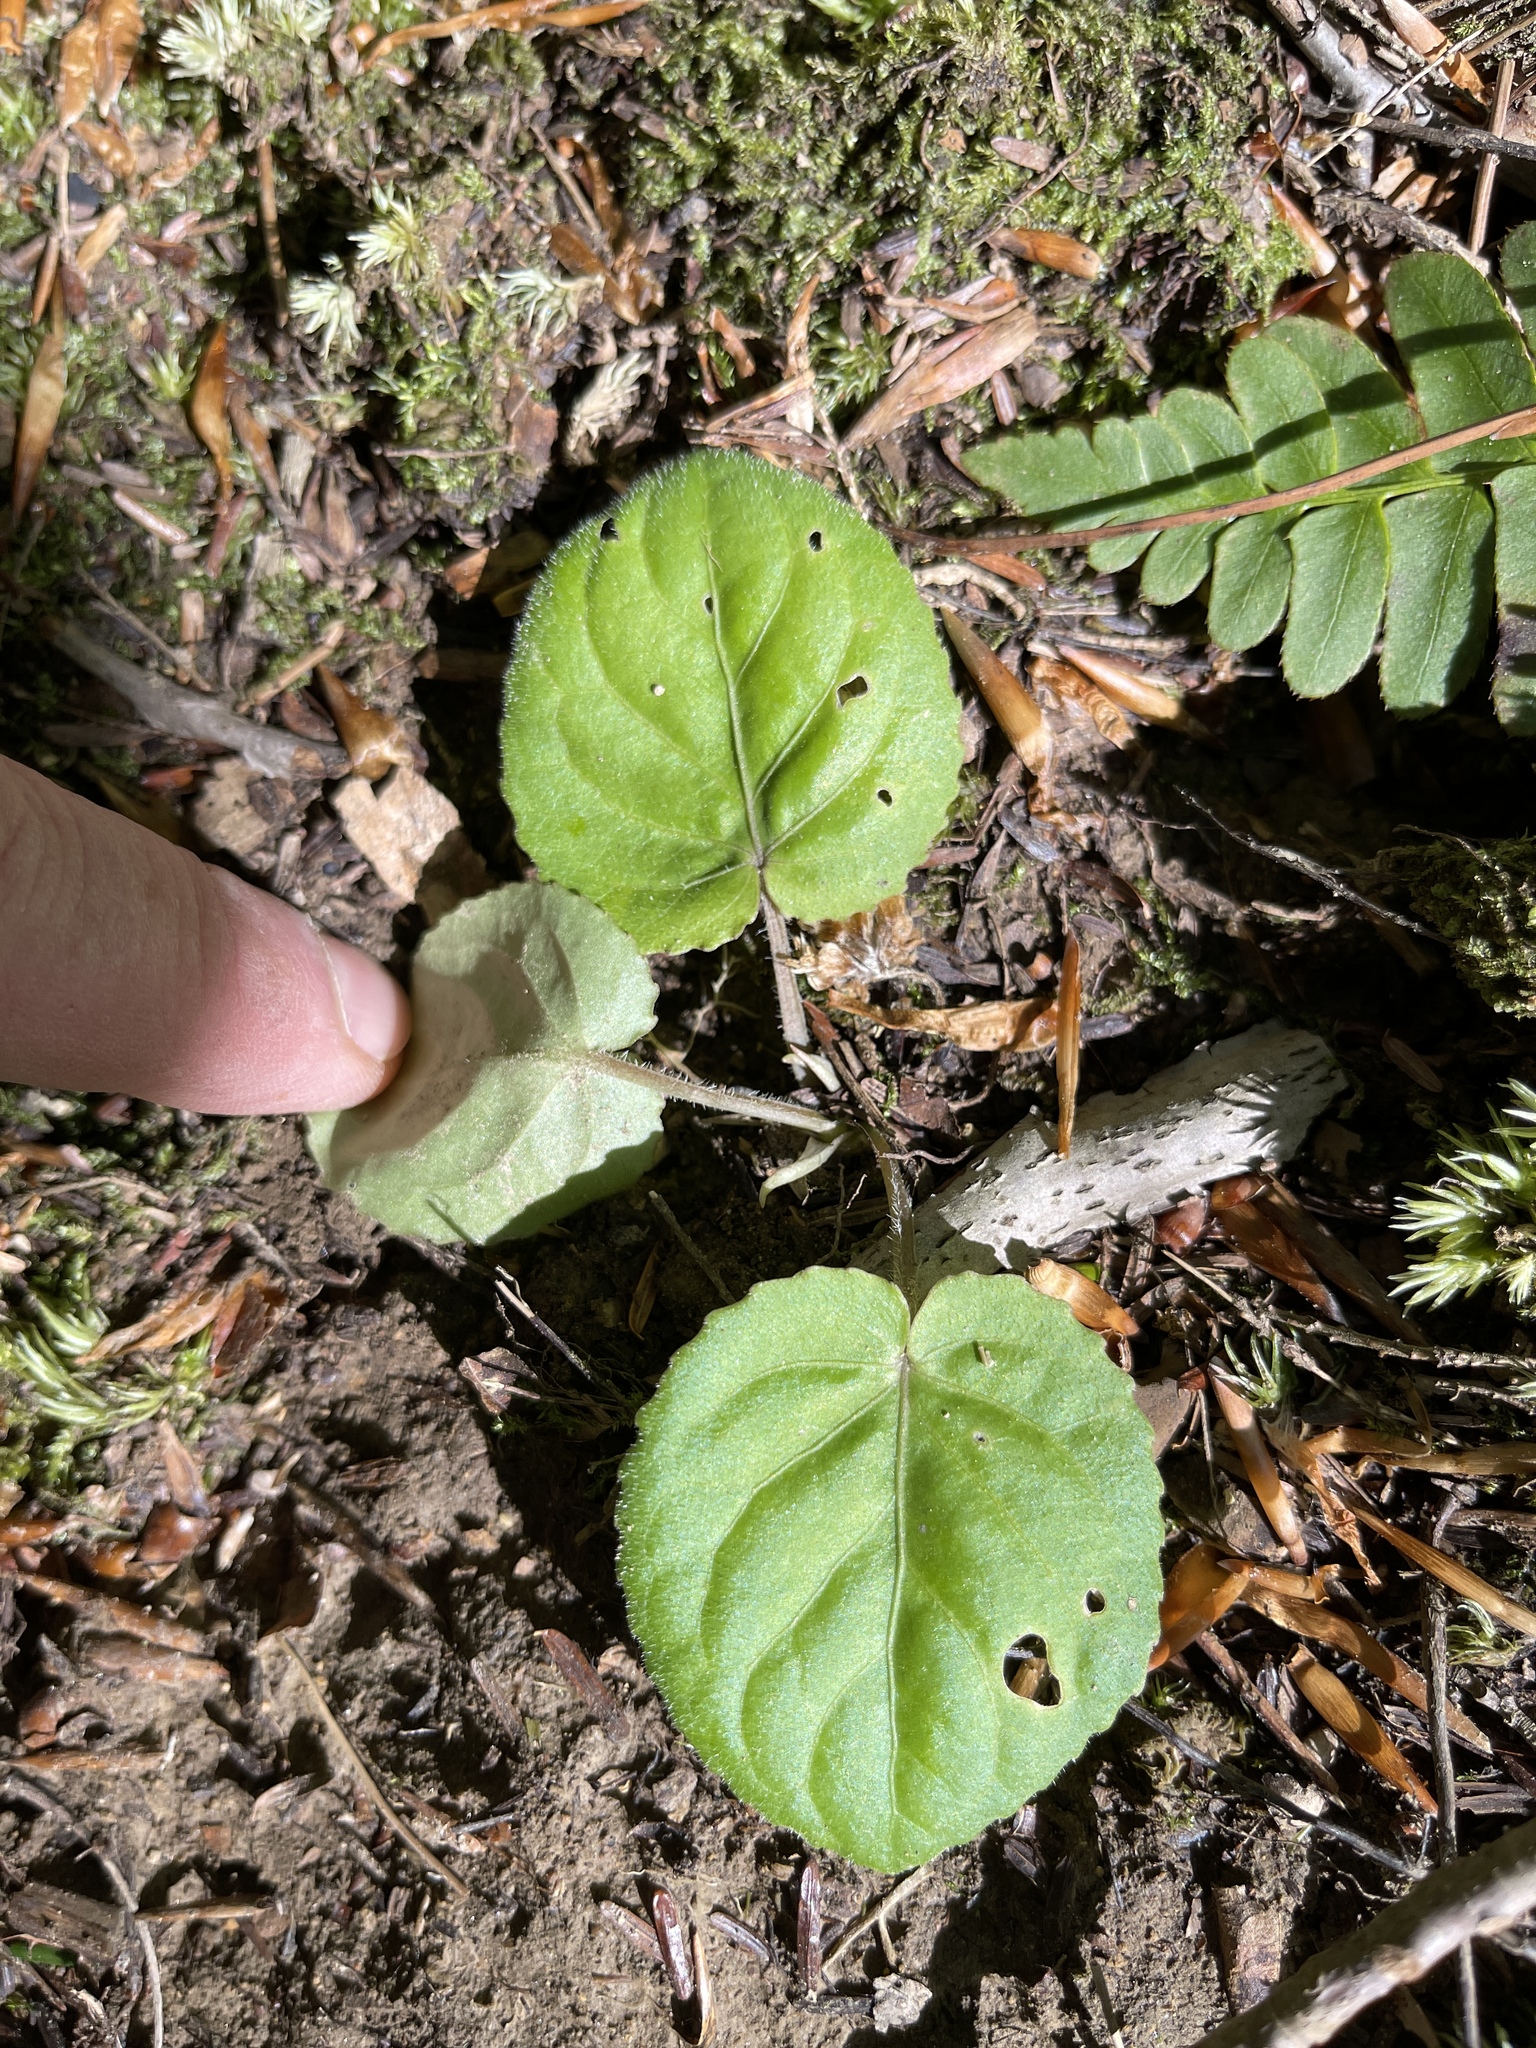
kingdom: Plantae
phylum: Tracheophyta
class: Magnoliopsida
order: Malpighiales
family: Violaceae
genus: Viola
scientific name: Viola rotundifolia
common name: Early yellow violet
